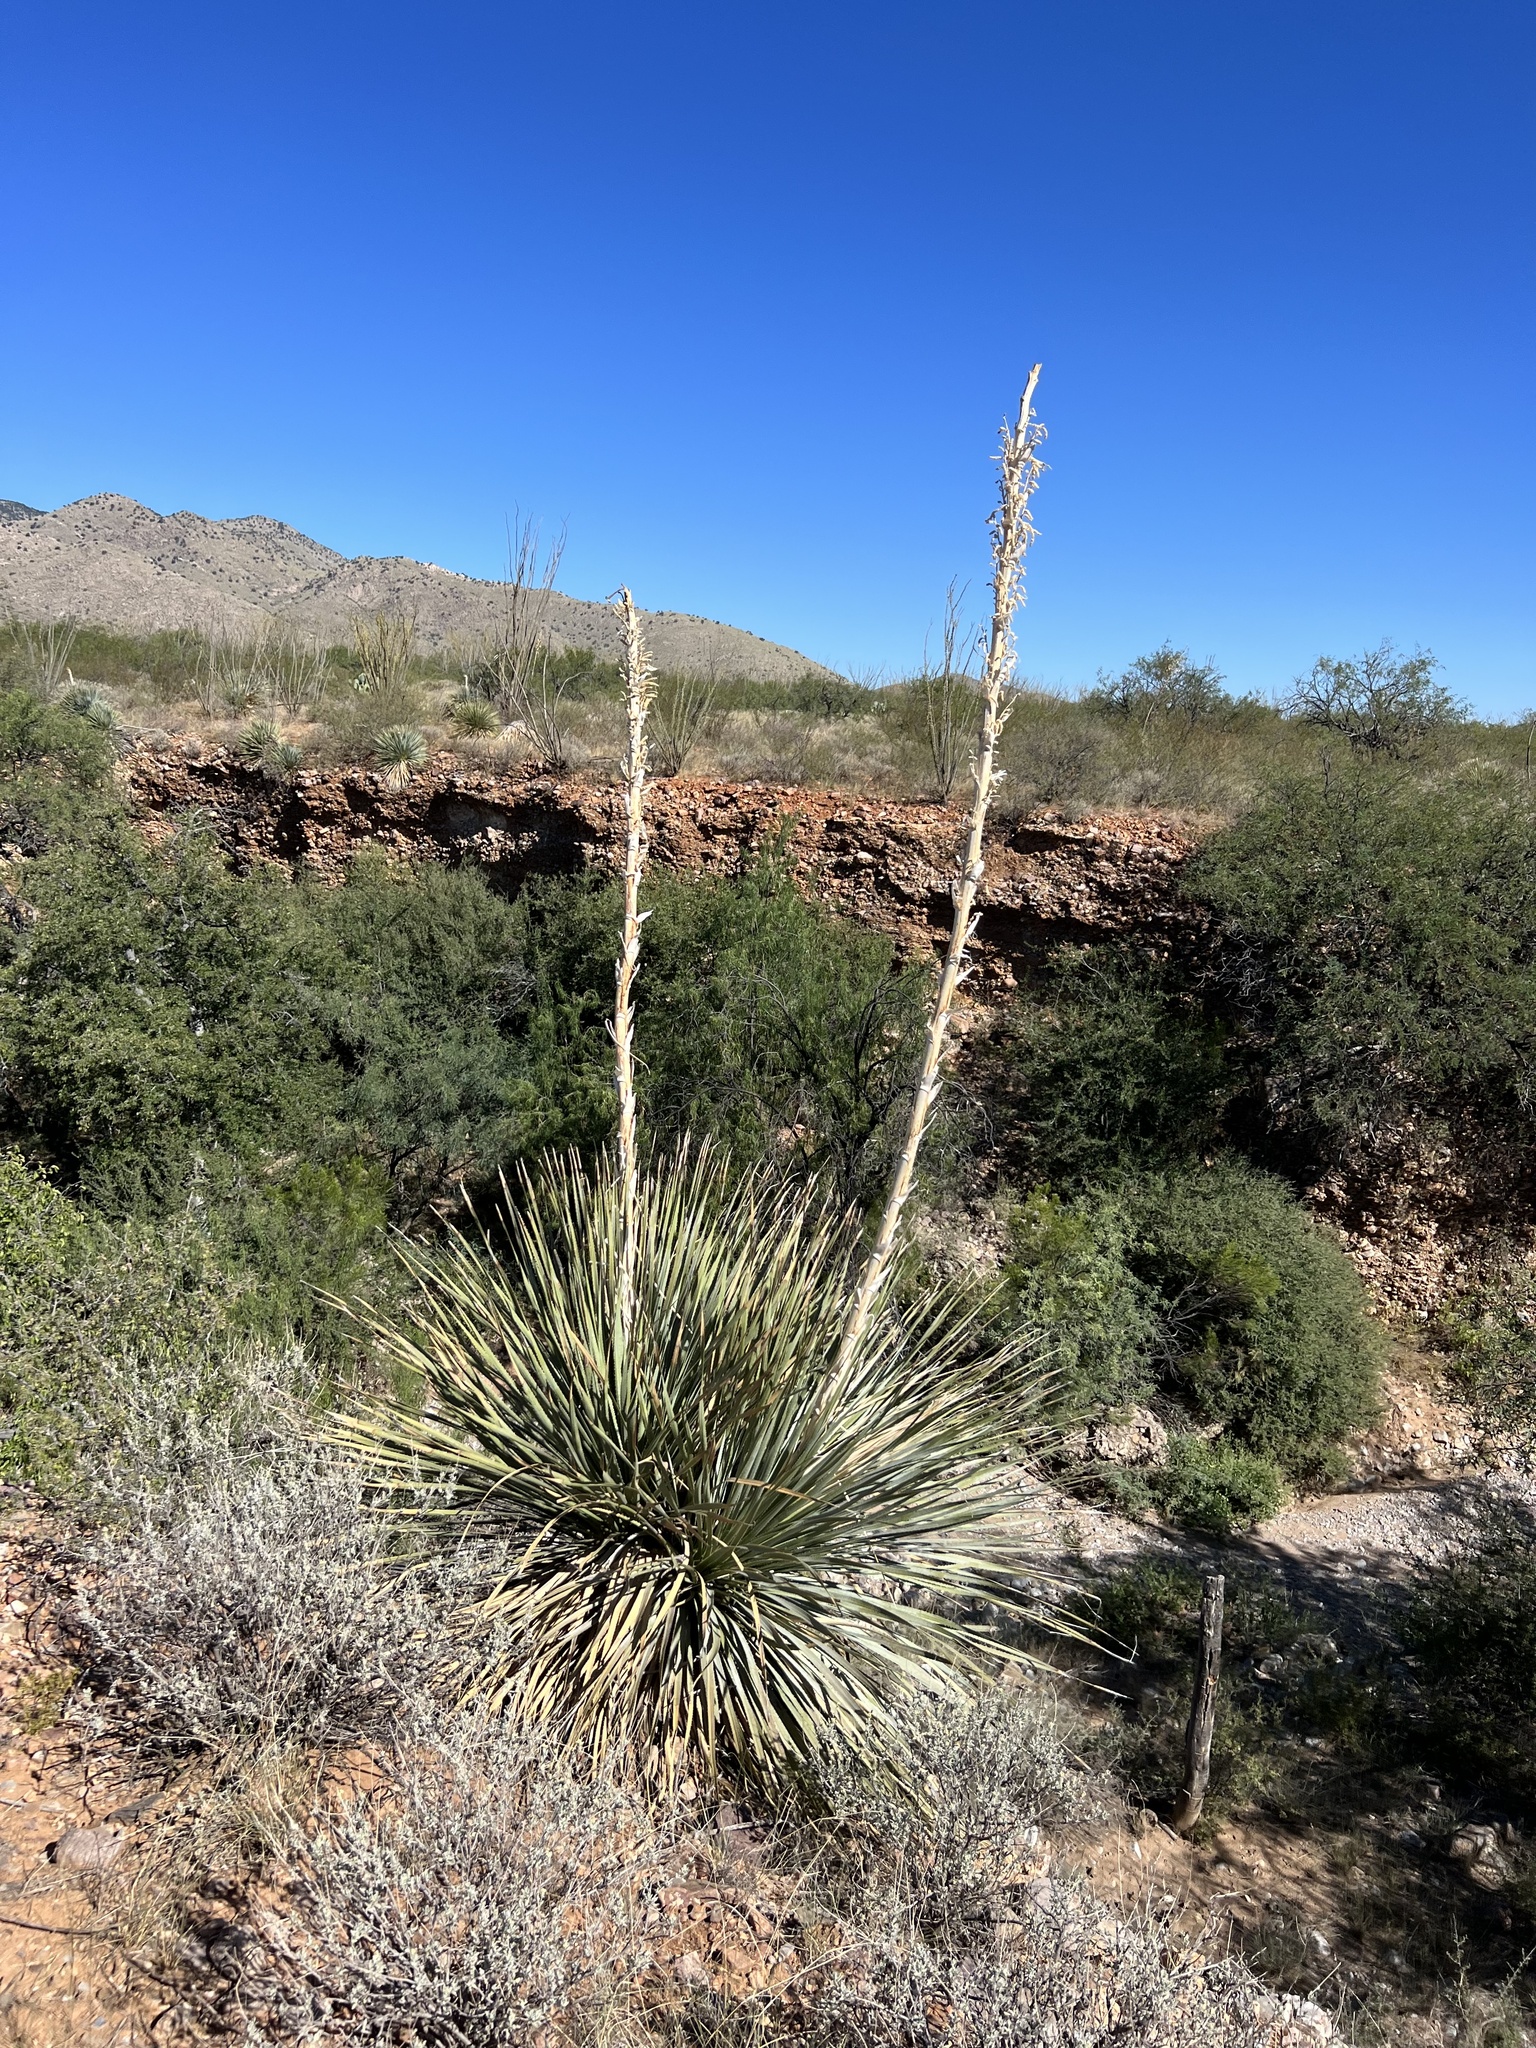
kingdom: Plantae
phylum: Tracheophyta
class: Liliopsida
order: Asparagales
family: Asparagaceae
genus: Dasylirion
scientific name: Dasylirion wheeleri
